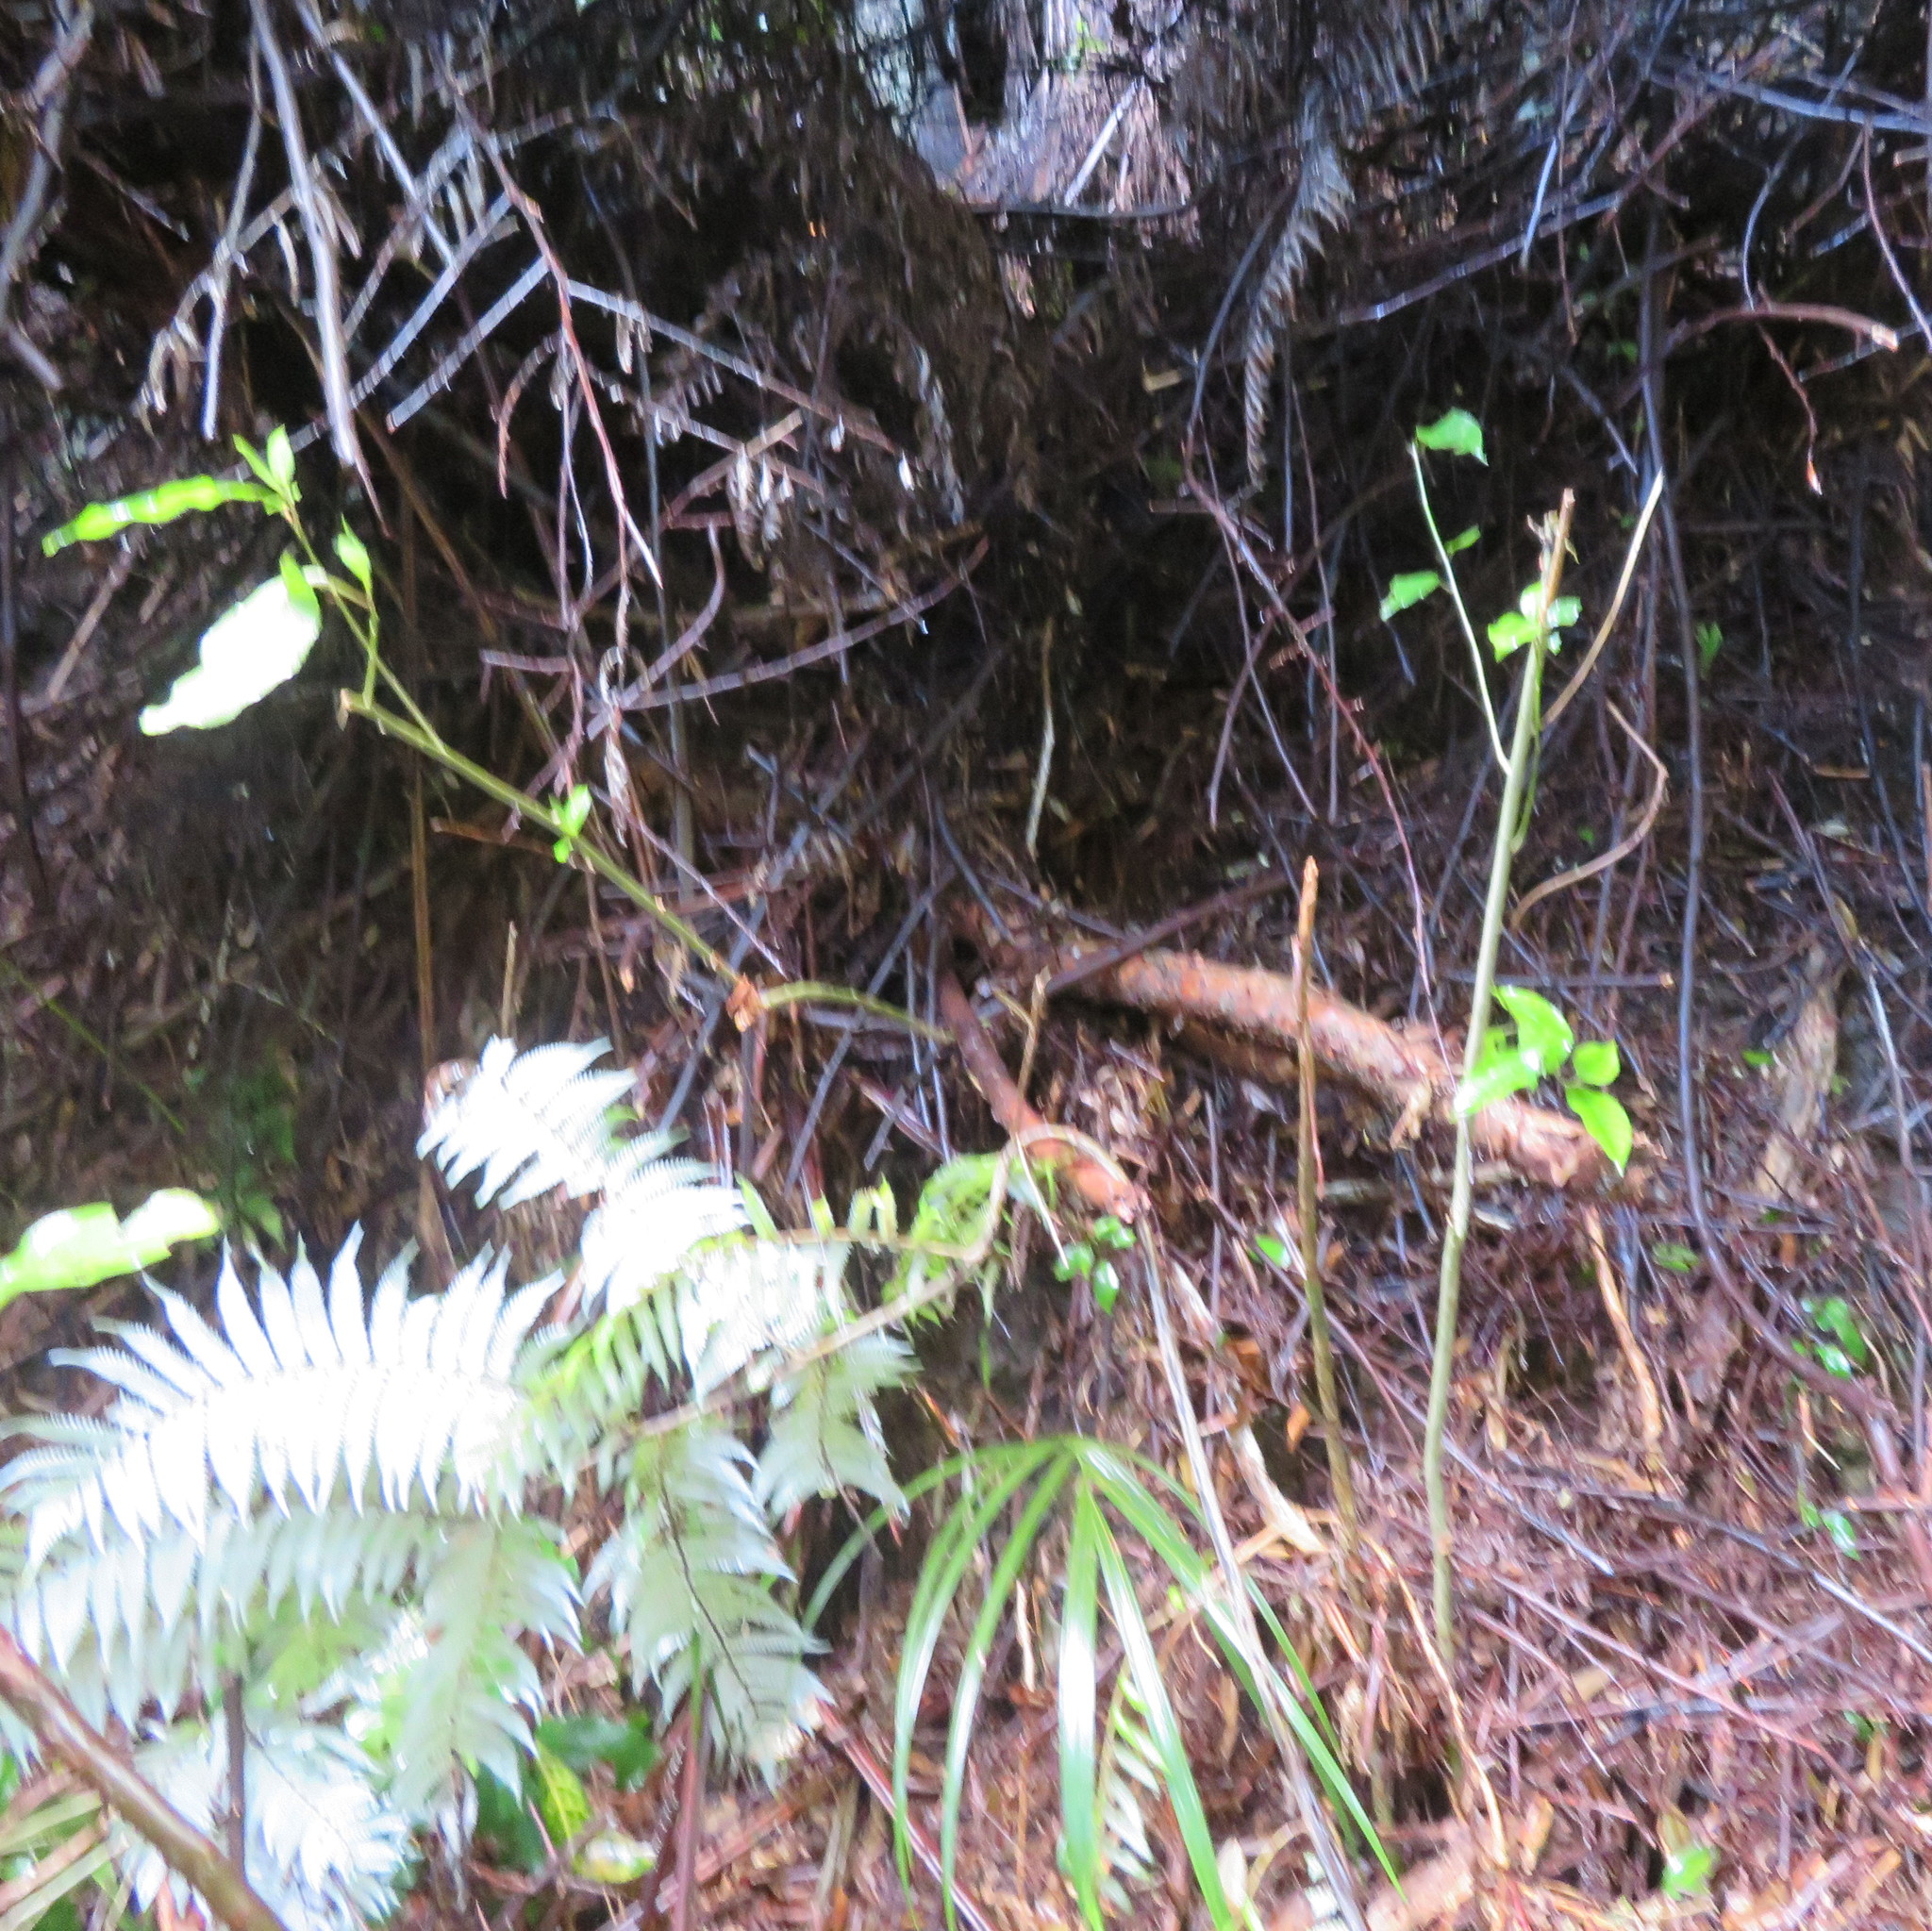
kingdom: Plantae
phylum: Tracheophyta
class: Liliopsida
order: Arecales
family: Arecaceae
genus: Rhopalostylis
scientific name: Rhopalostylis sapida
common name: Feather-duster palm
